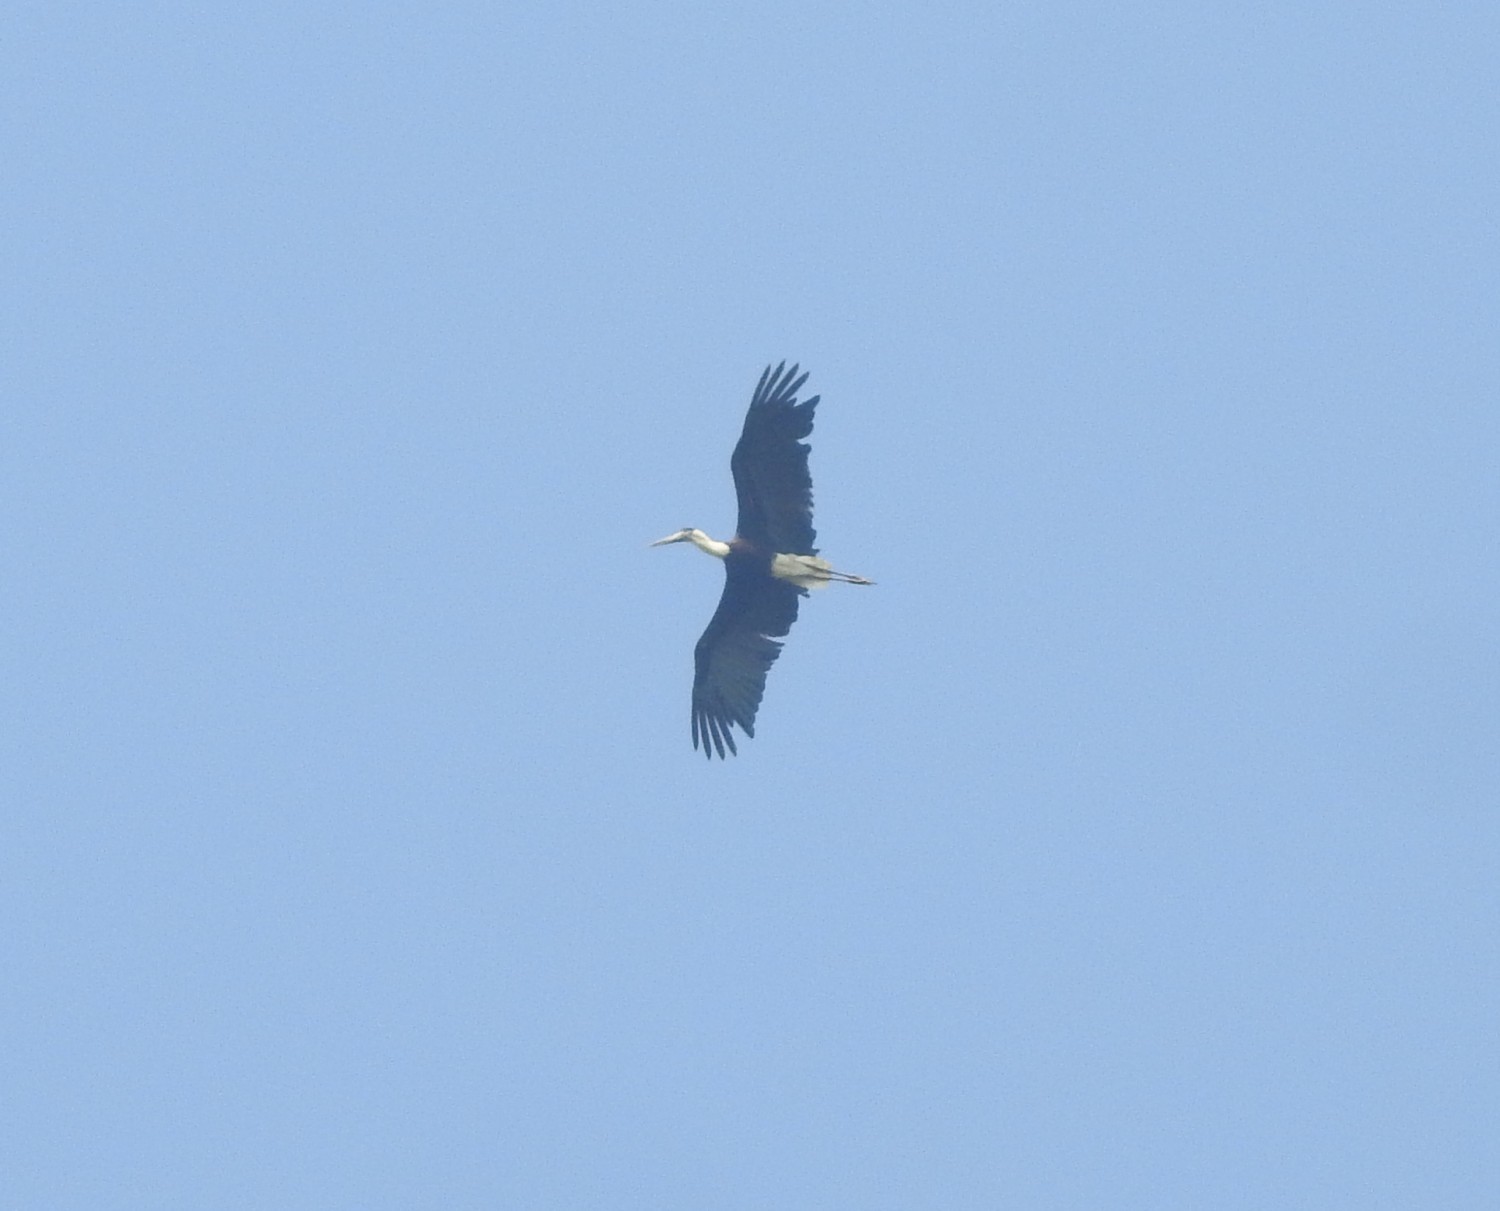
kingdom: Animalia
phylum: Chordata
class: Aves
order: Ciconiiformes
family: Ciconiidae
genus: Ciconia
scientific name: Ciconia episcopus
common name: Woolly-necked stork
